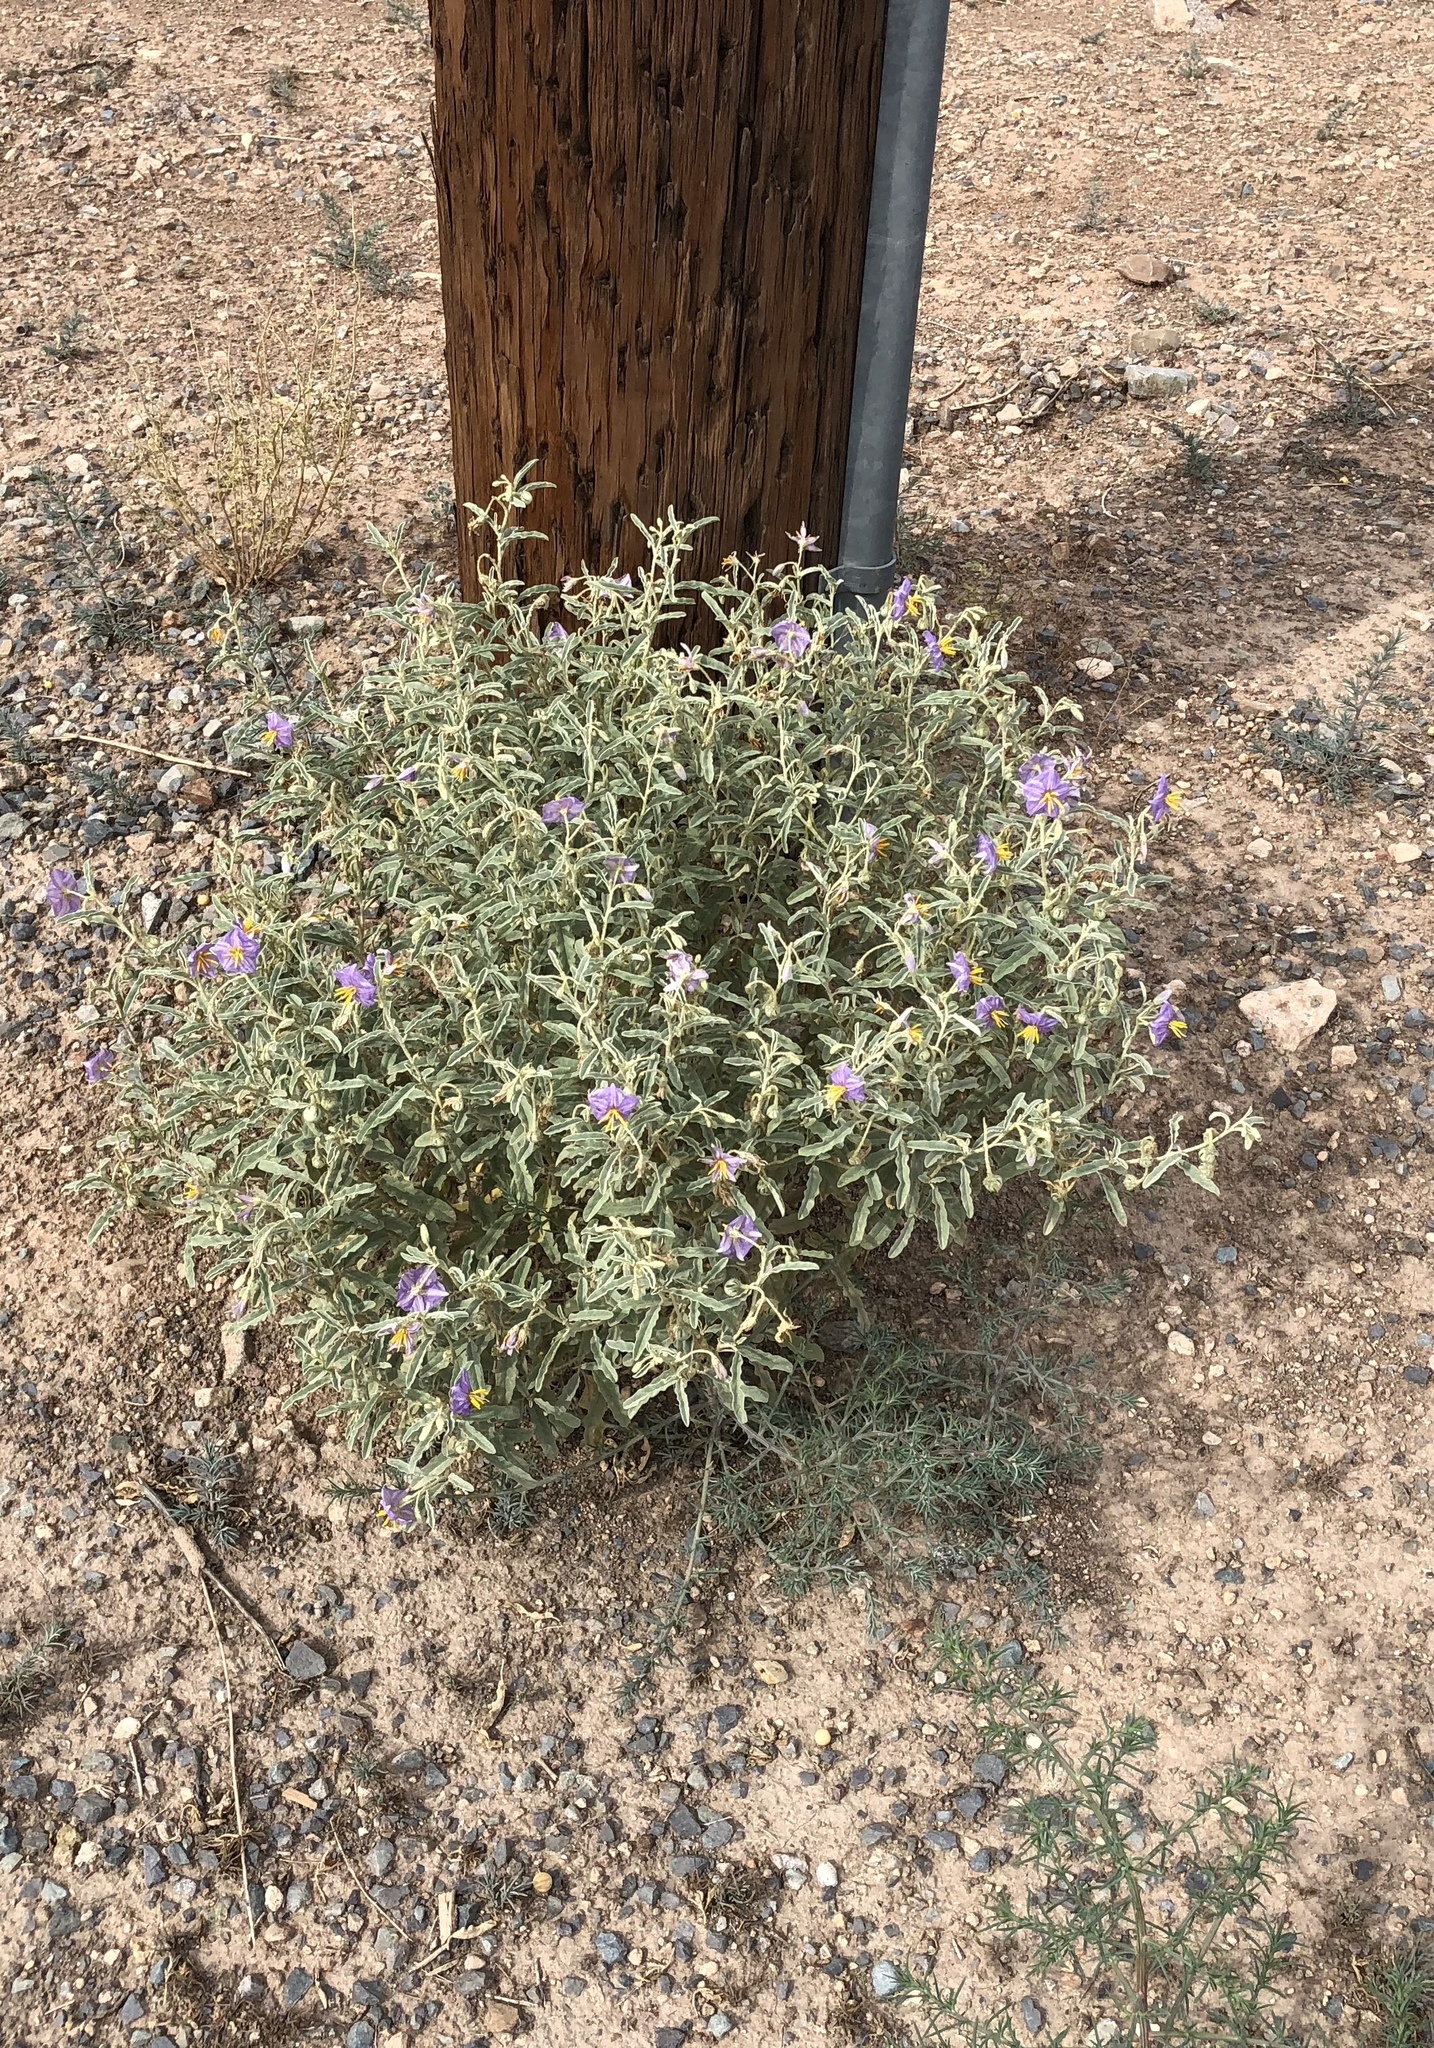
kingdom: Plantae
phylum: Tracheophyta
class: Magnoliopsida
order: Solanales
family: Solanaceae
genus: Solanum
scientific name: Solanum elaeagnifolium
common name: Silverleaf nightshade
